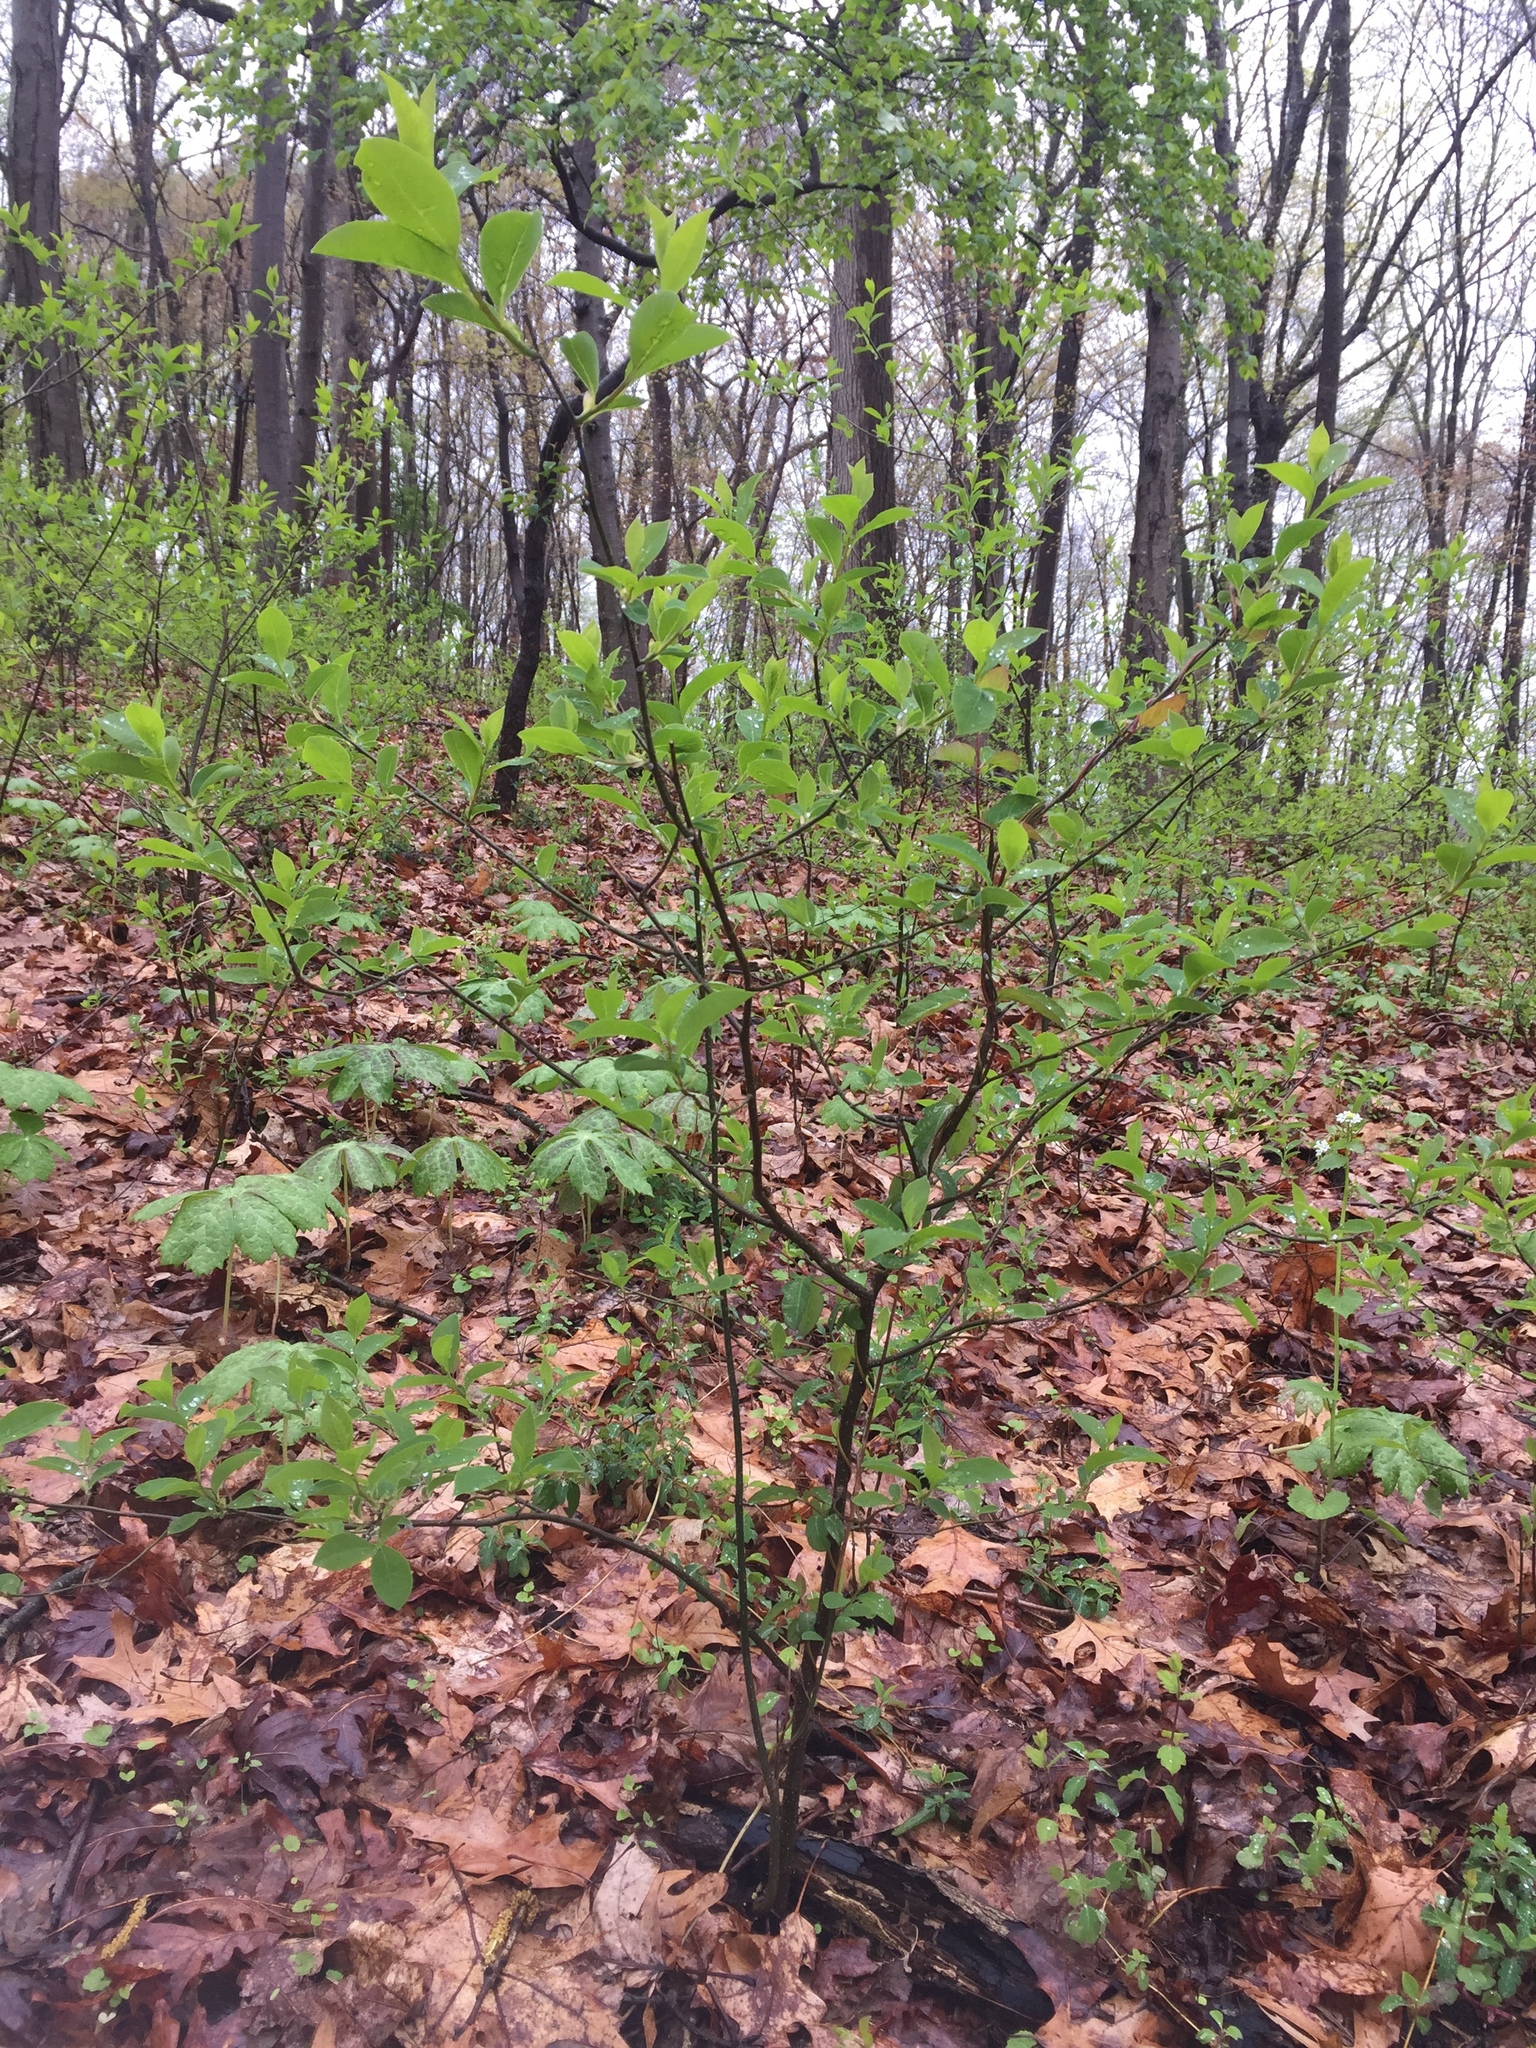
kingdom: Plantae
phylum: Tracheophyta
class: Magnoliopsida
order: Laurales
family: Lauraceae
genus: Lindera
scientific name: Lindera benzoin
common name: Spicebush
